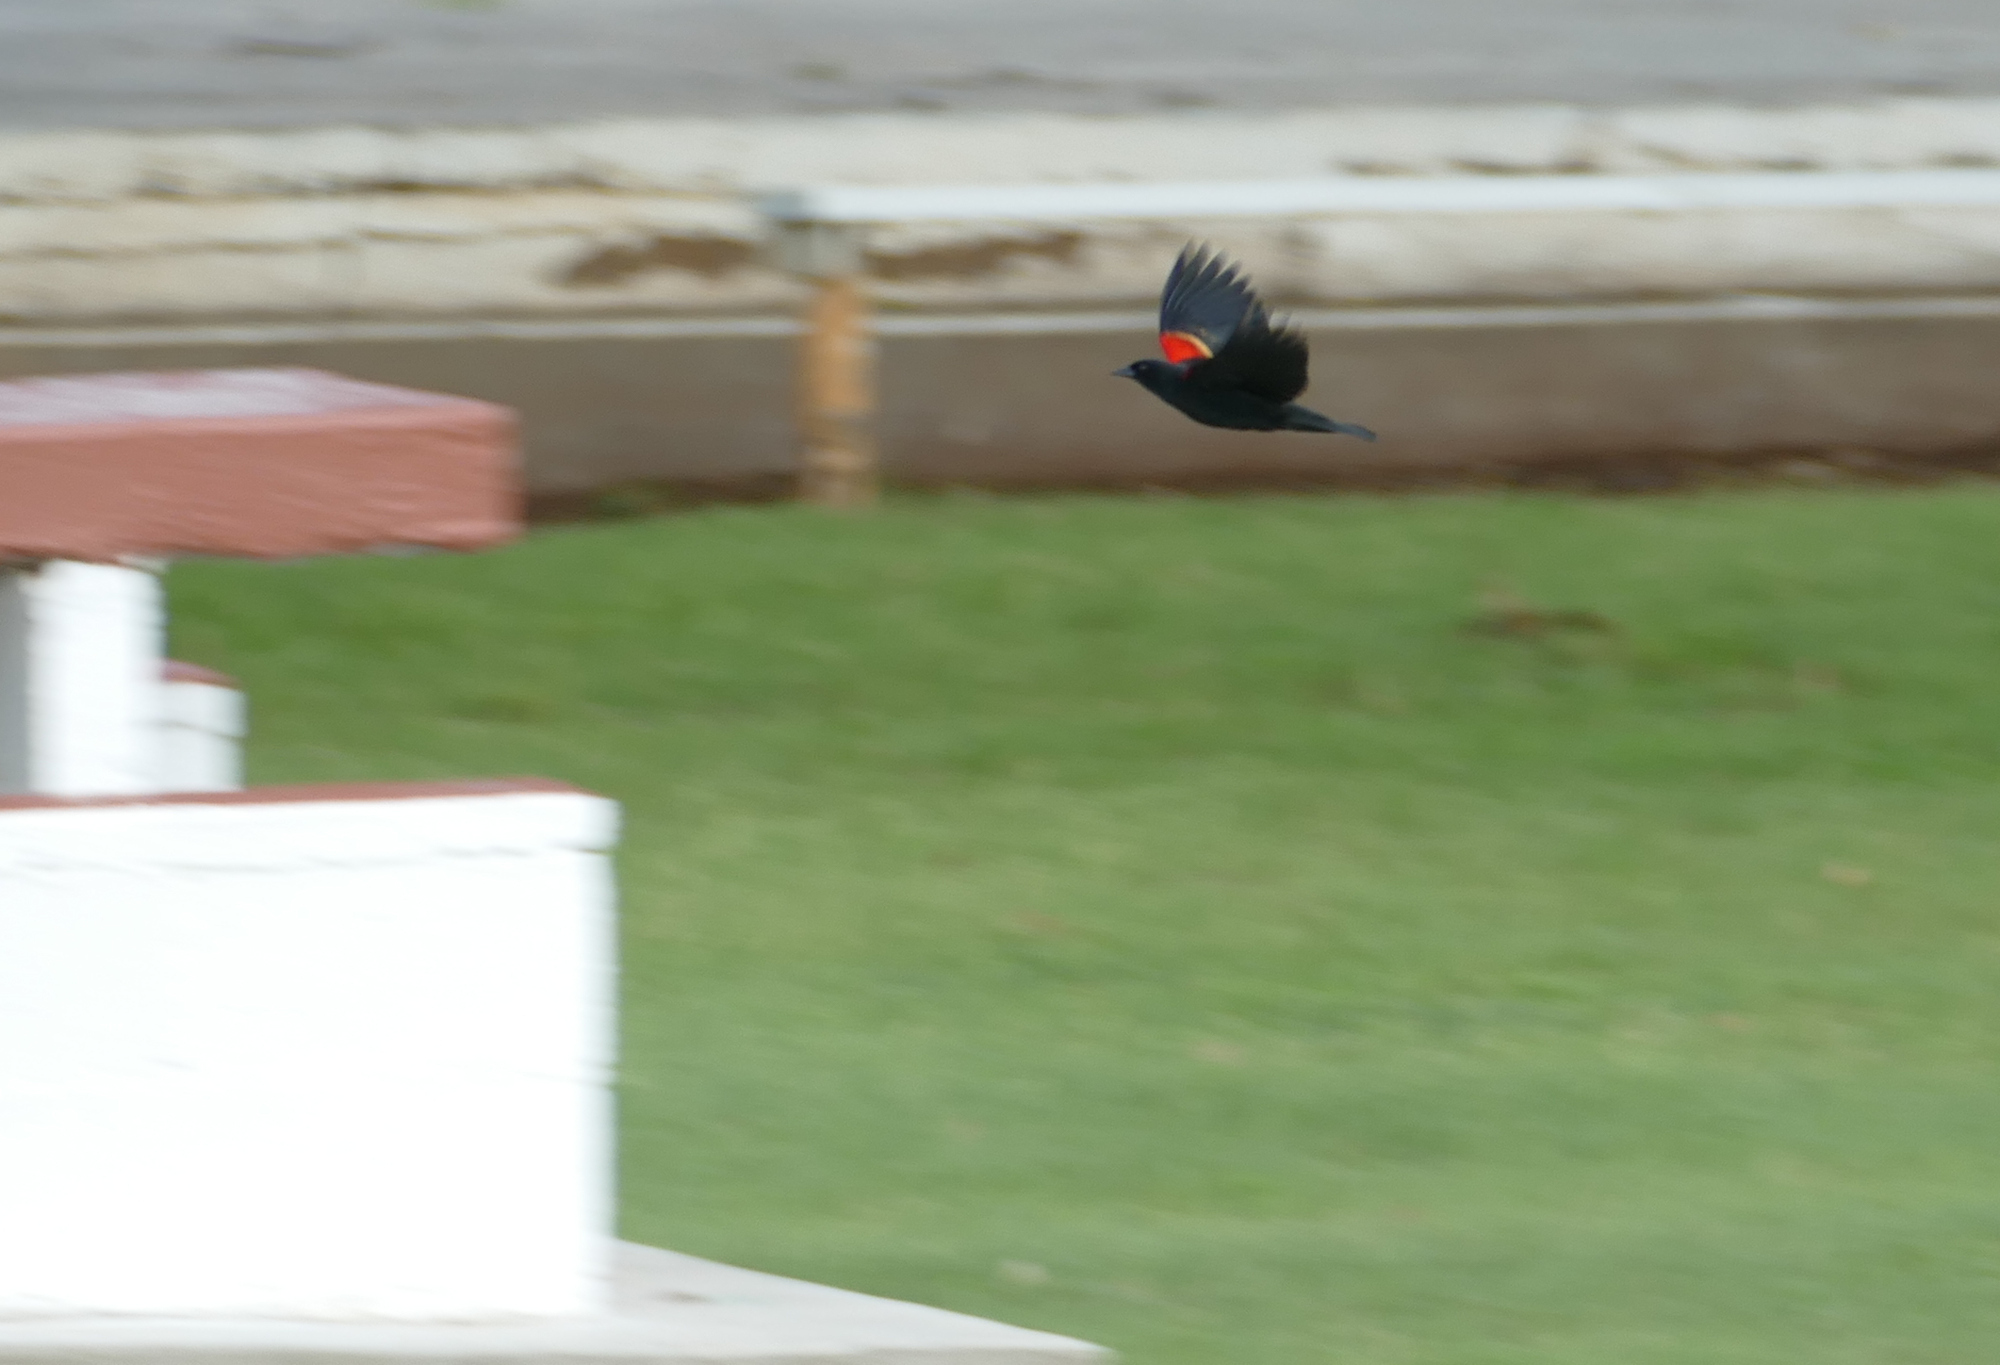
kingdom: Animalia
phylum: Chordata
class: Aves
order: Passeriformes
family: Icteridae
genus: Agelaius
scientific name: Agelaius phoeniceus
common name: Red-winged blackbird
